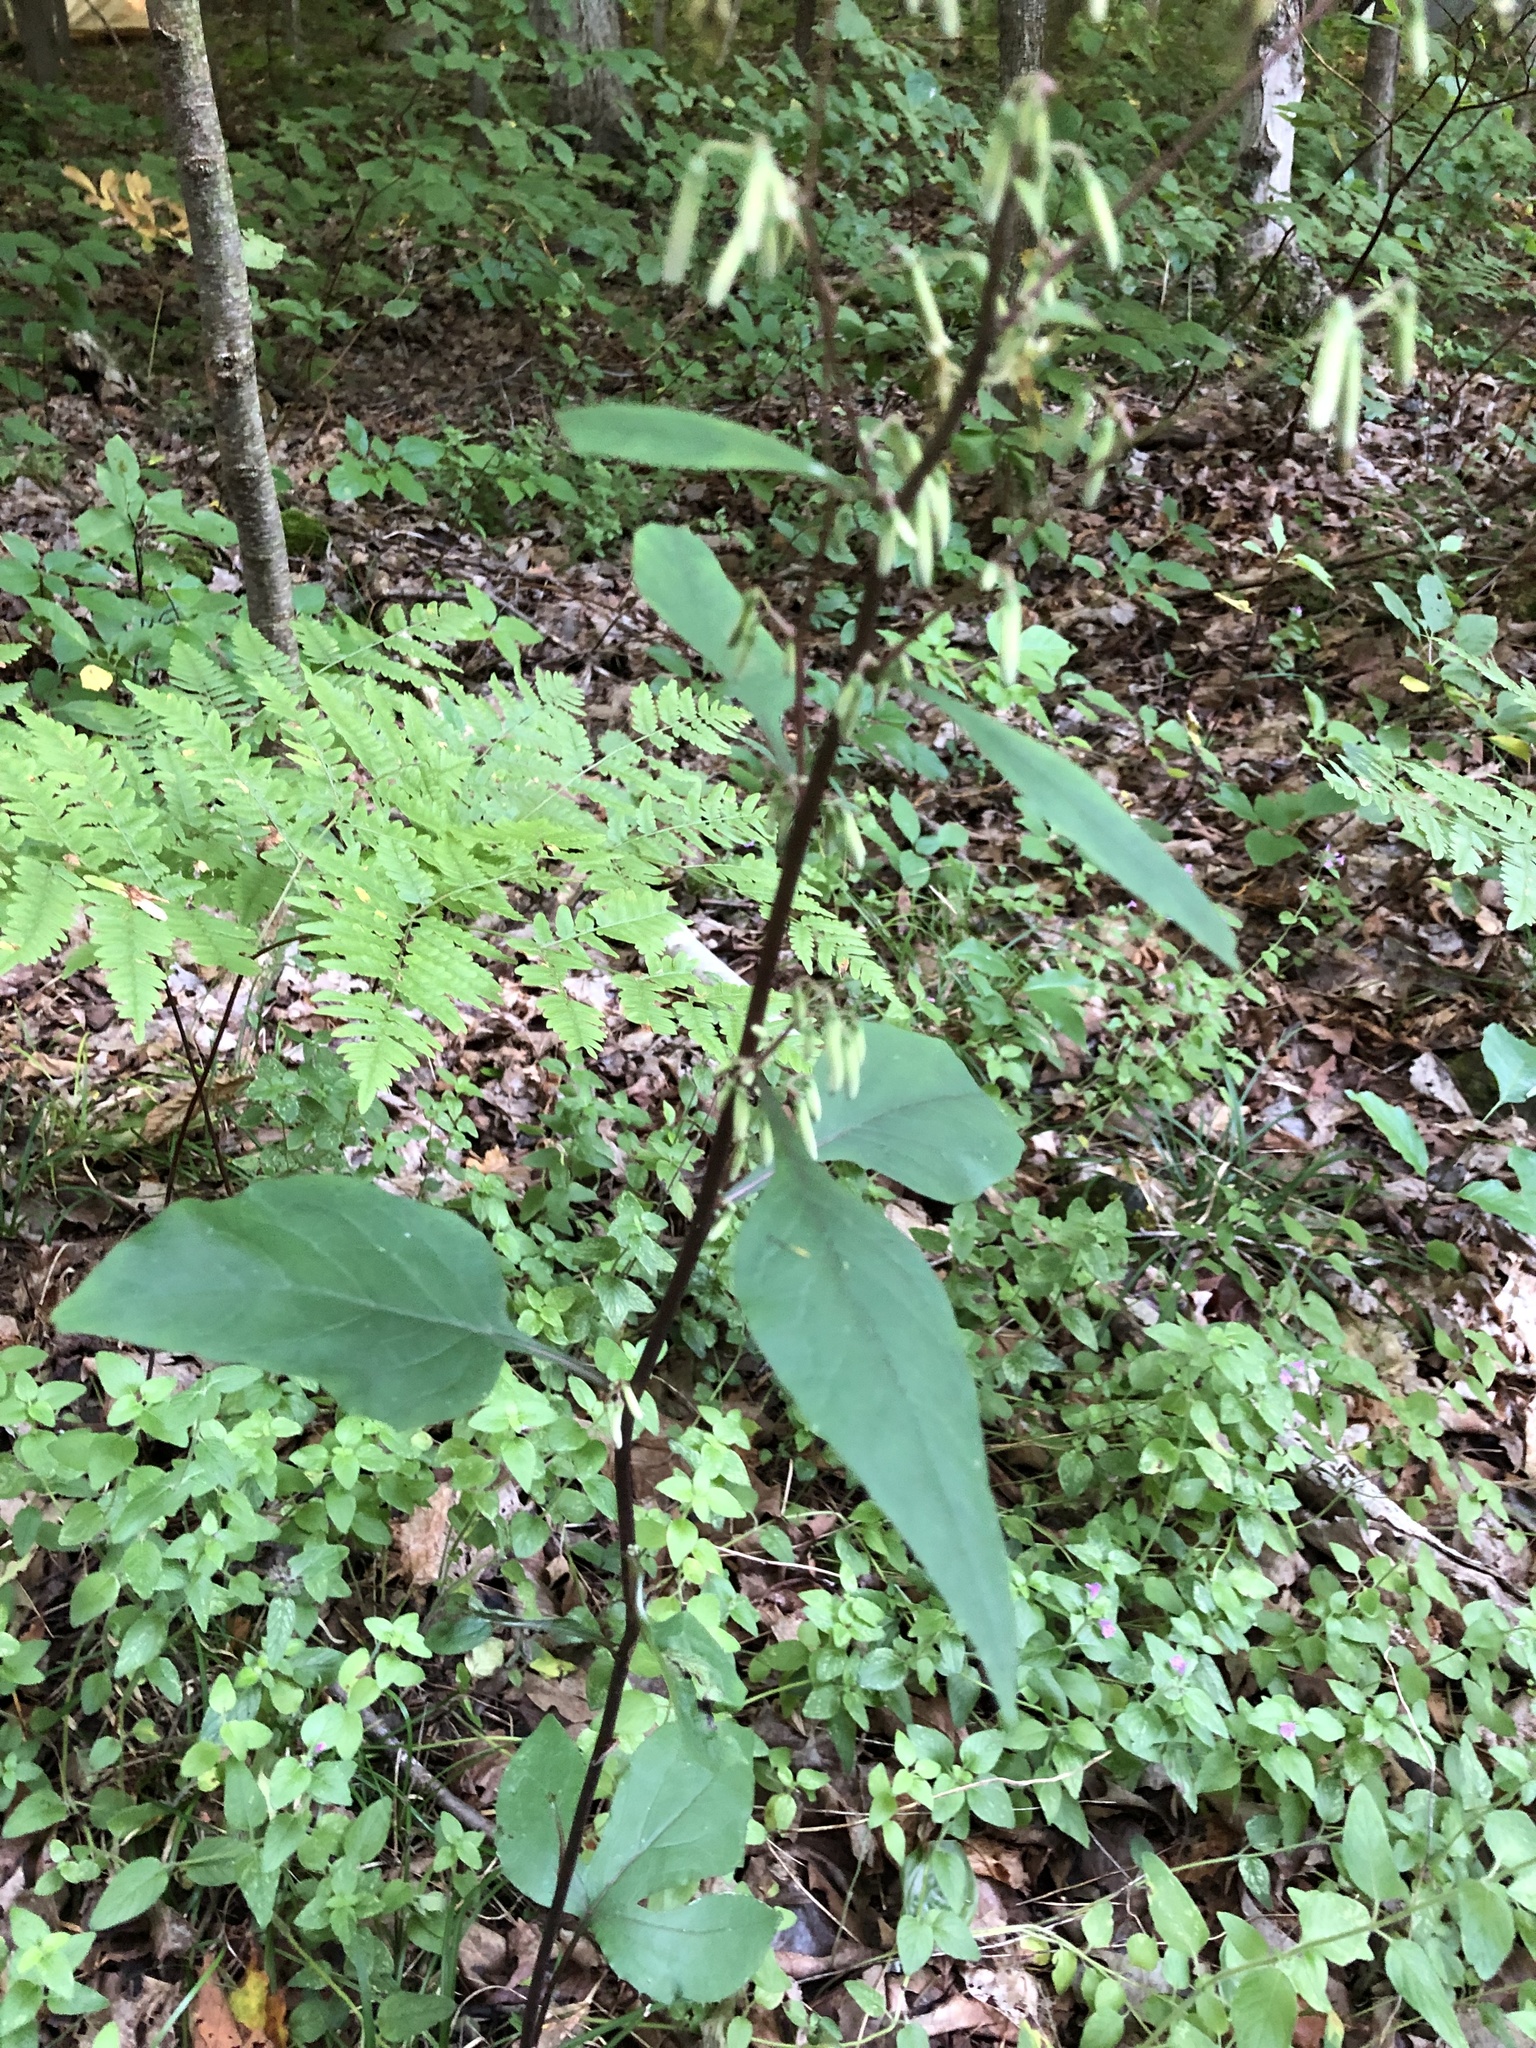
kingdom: Plantae
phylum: Tracheophyta
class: Magnoliopsida
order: Asterales
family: Asteraceae
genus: Nabalus
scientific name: Nabalus altissima
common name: Tall rattlesnakeroot
